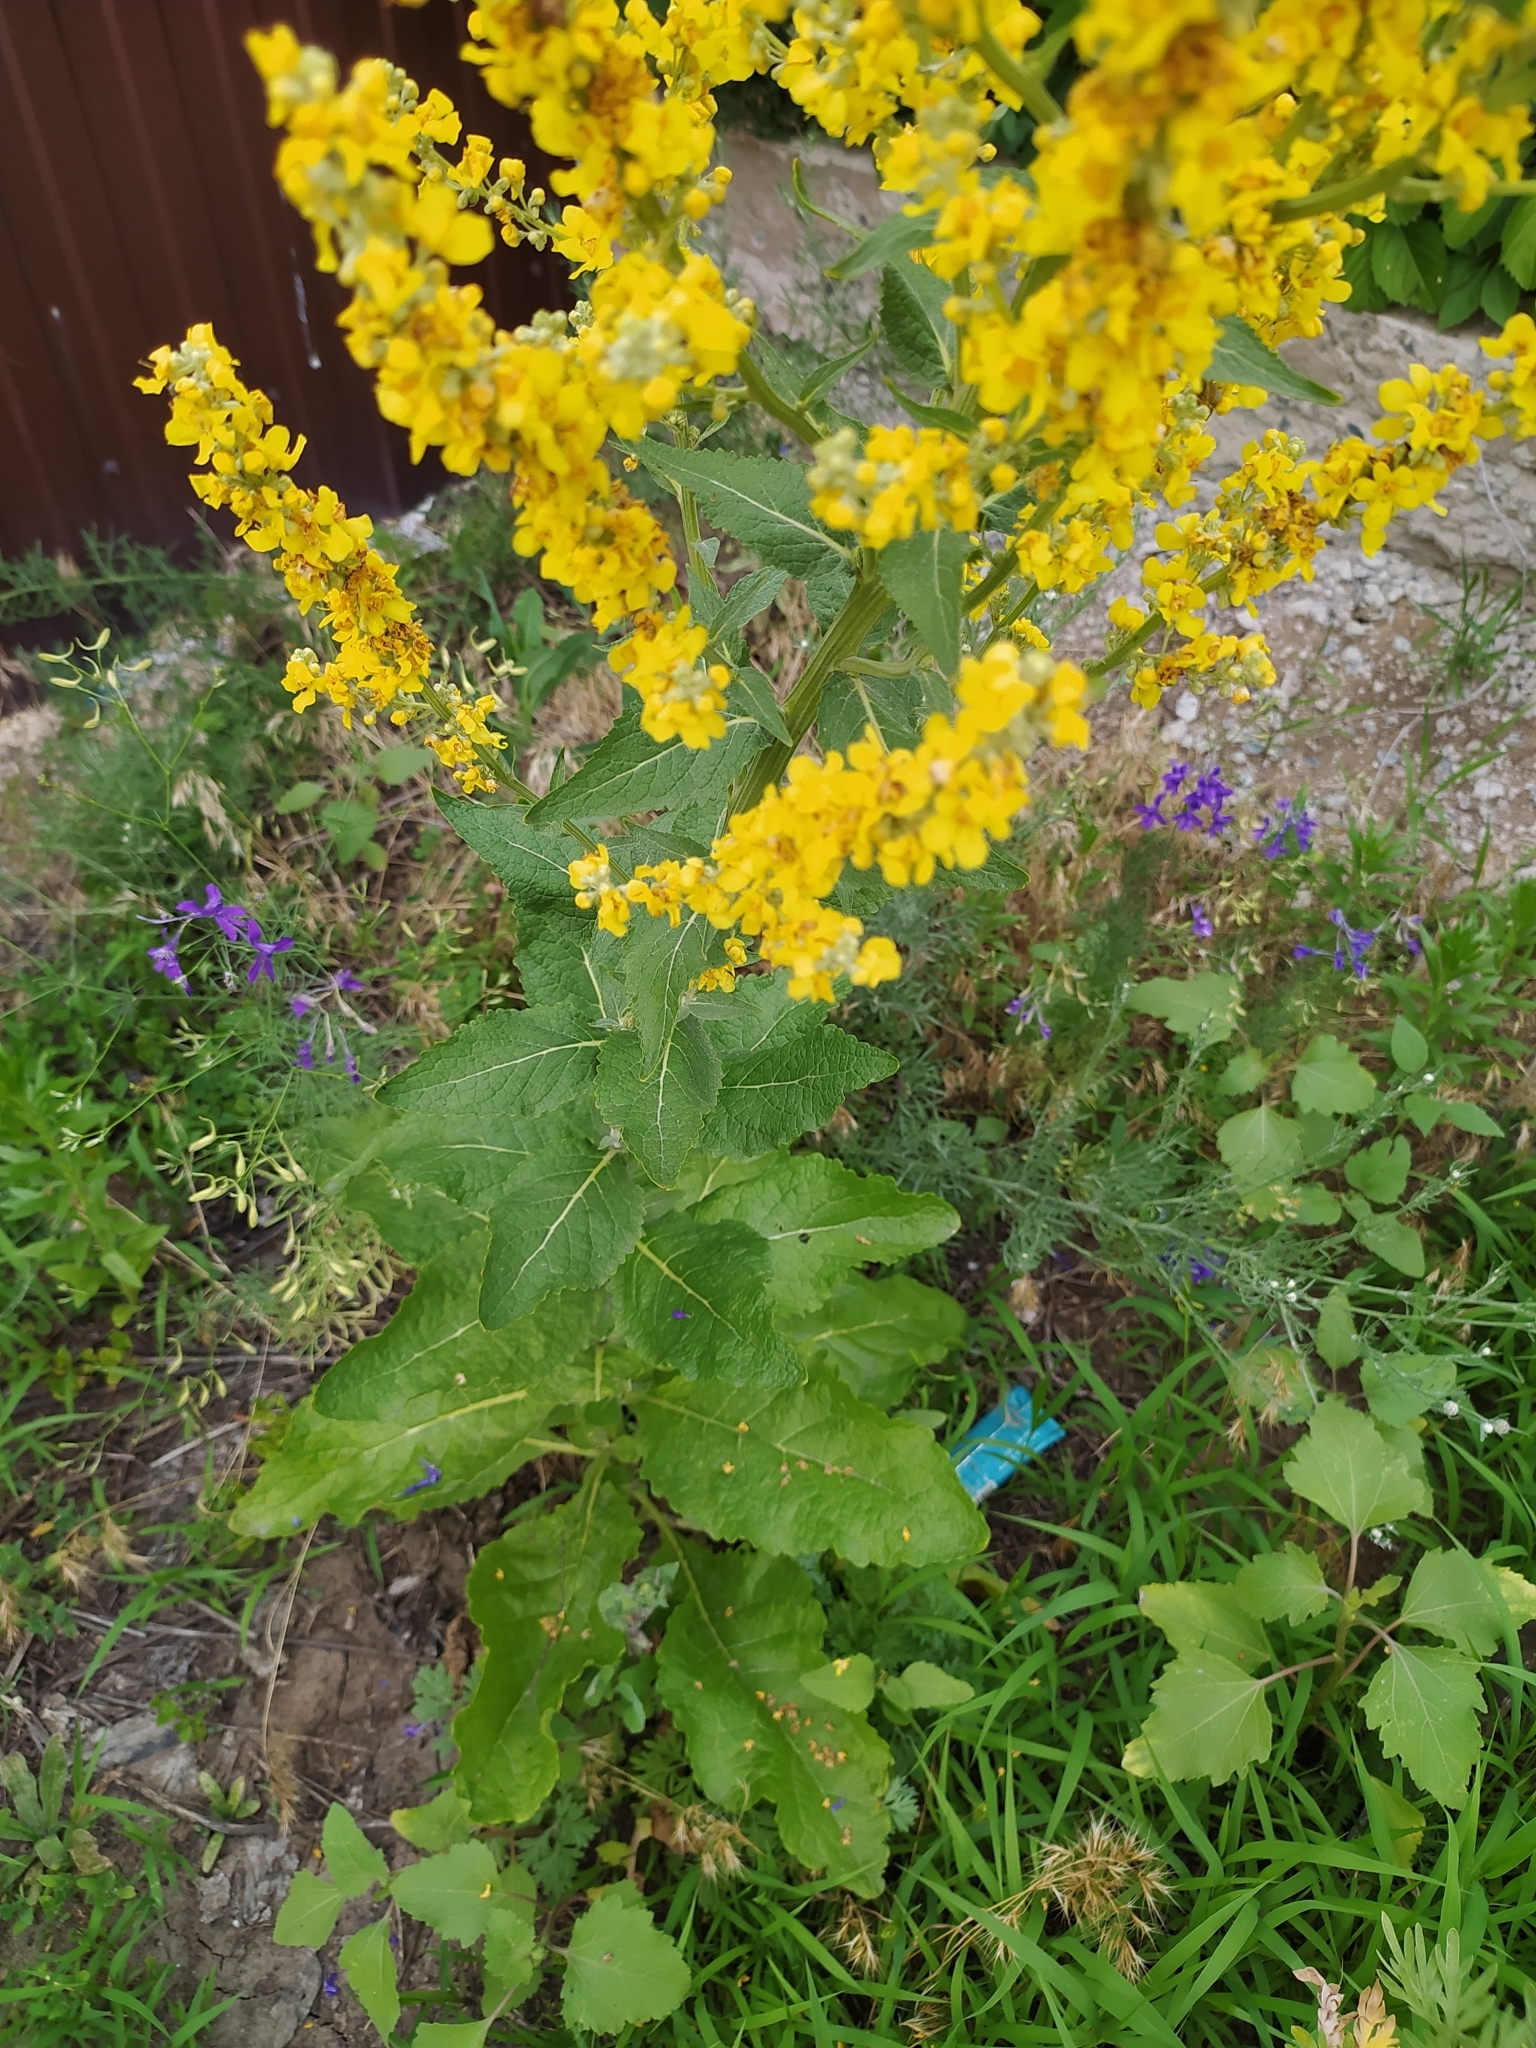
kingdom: Plantae
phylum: Tracheophyta
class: Magnoliopsida
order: Lamiales
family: Scrophulariaceae
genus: Verbascum
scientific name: Verbascum lychnitis
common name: White mullein
